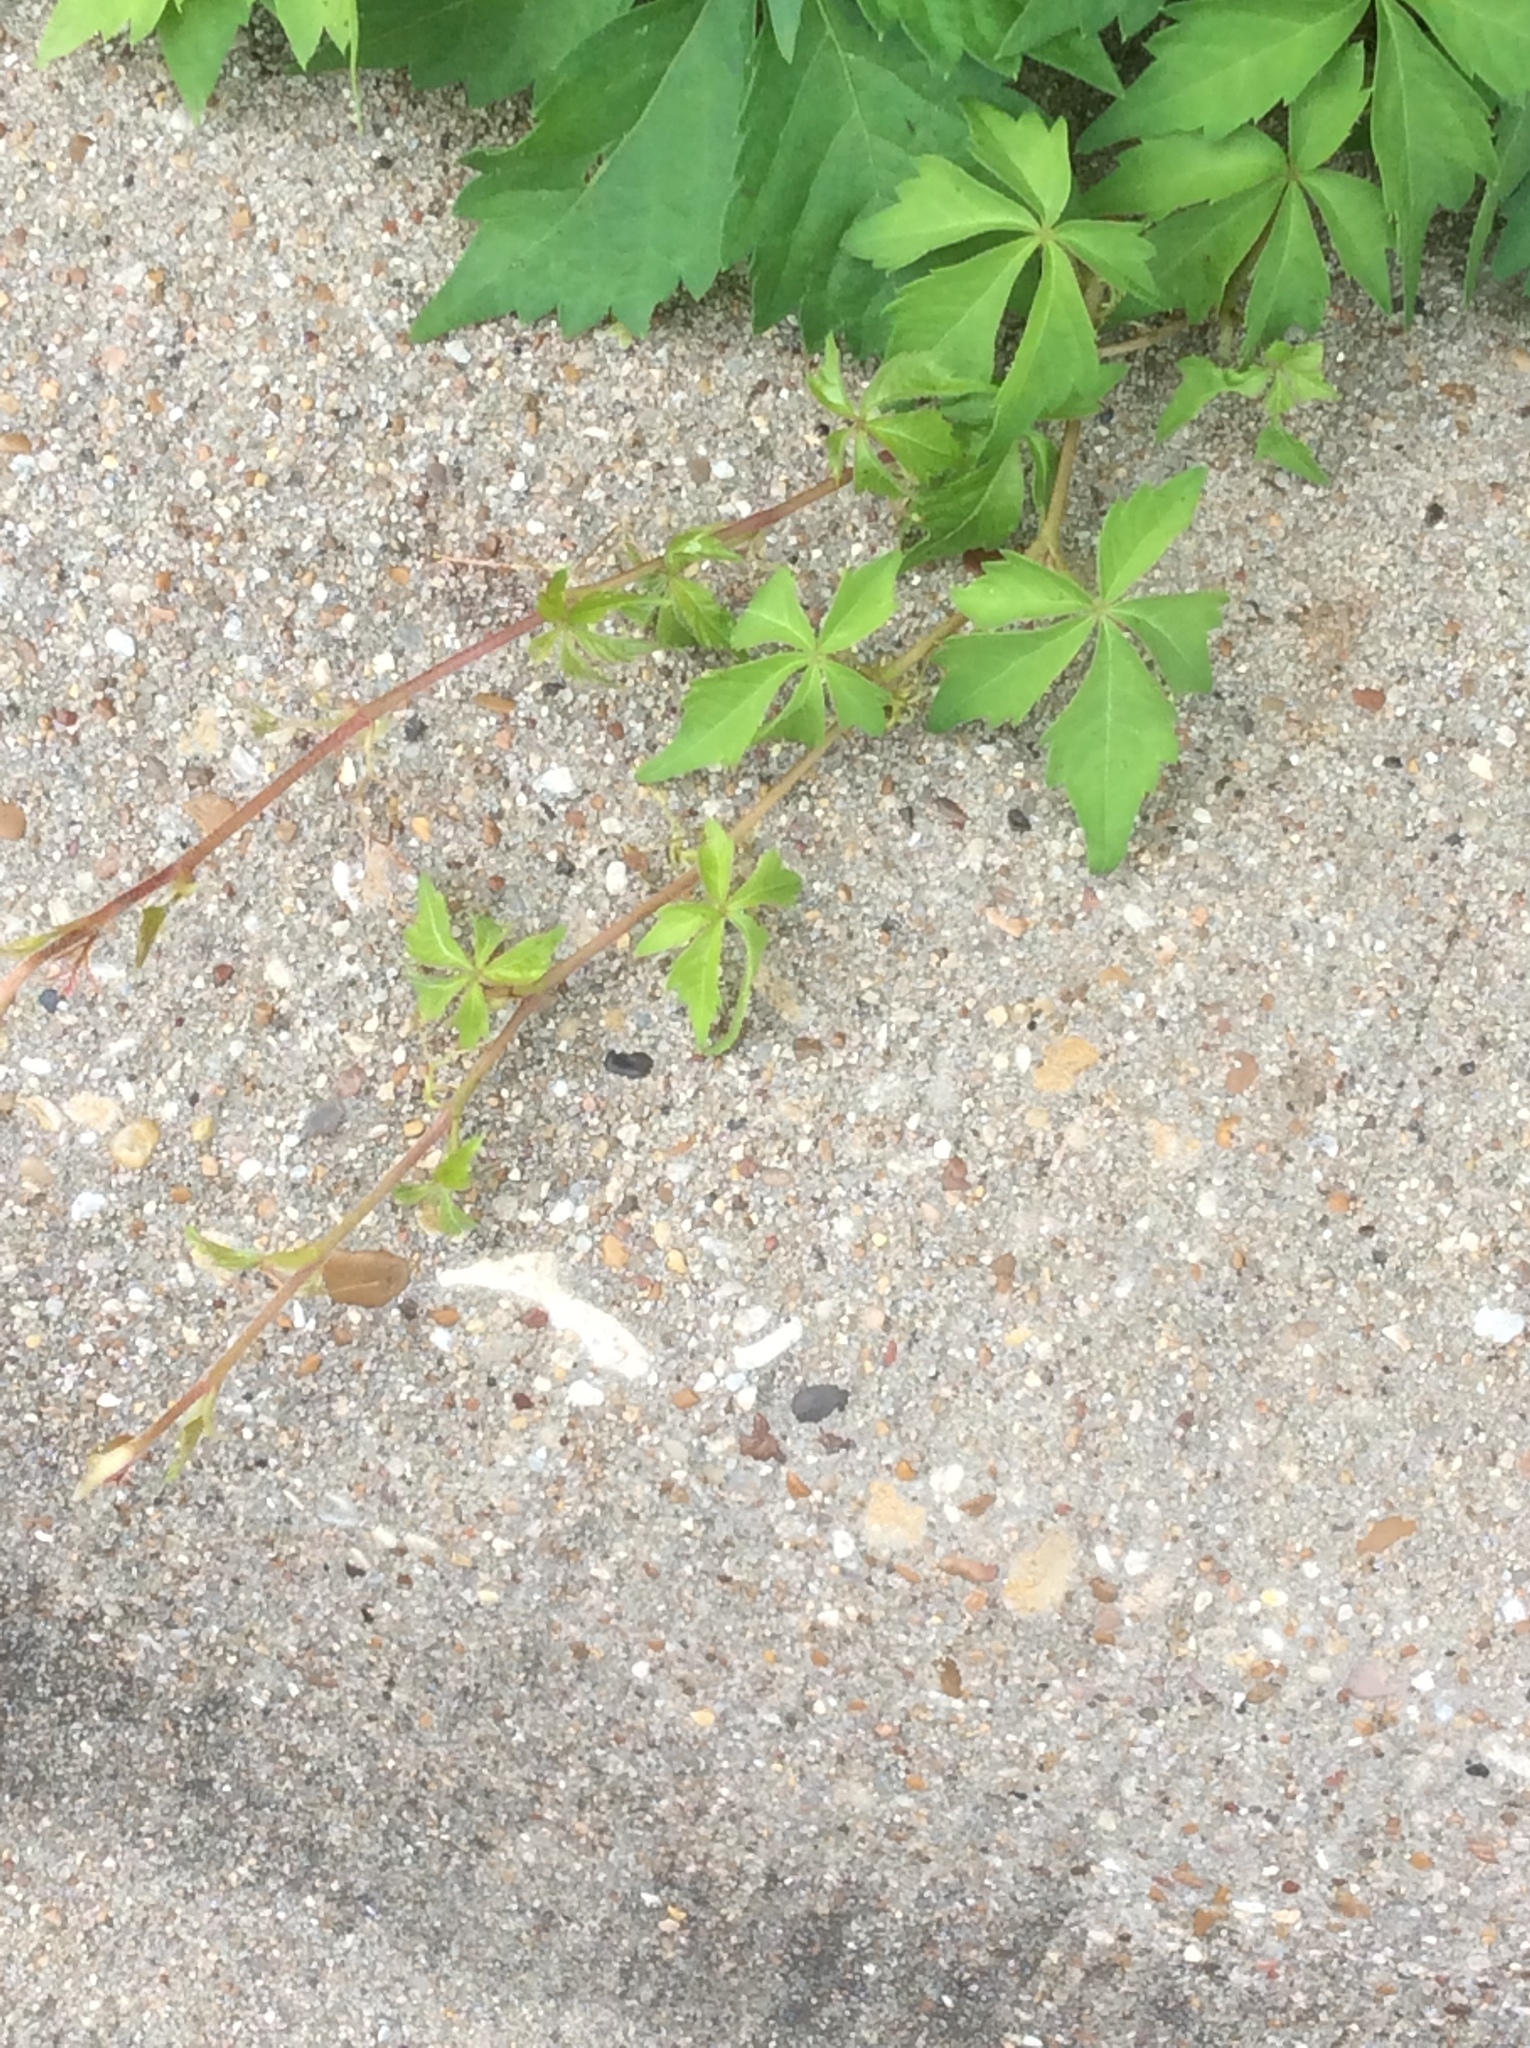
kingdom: Plantae
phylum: Tracheophyta
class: Magnoliopsida
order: Vitales
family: Vitaceae
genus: Parthenocissus
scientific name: Parthenocissus quinquefolia
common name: Virginia-creeper
